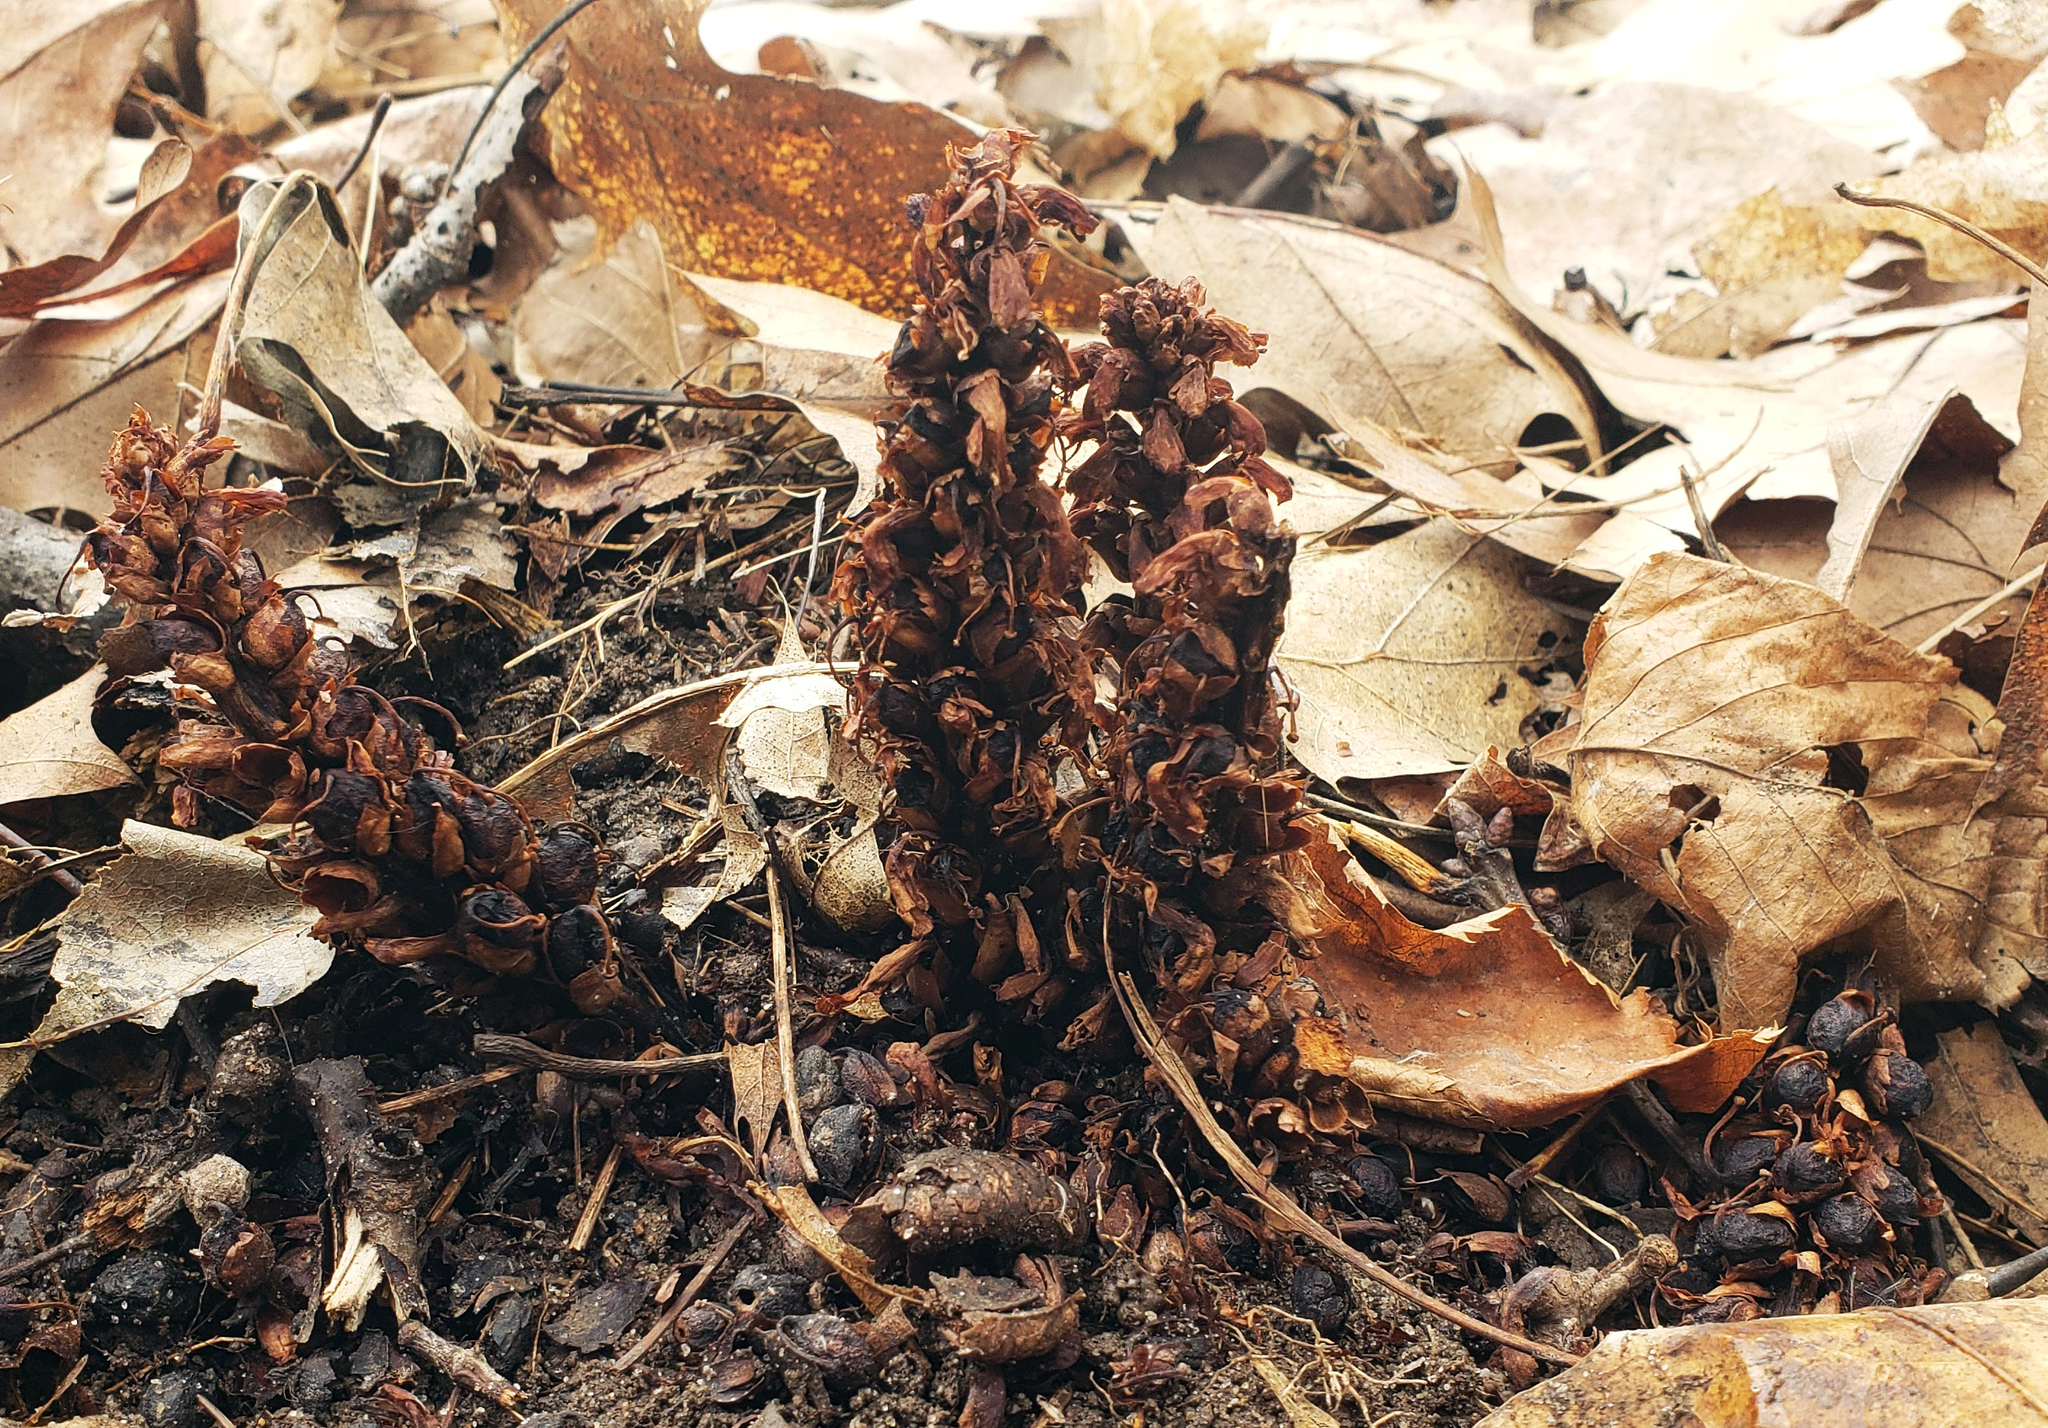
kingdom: Plantae
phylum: Tracheophyta
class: Magnoliopsida
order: Lamiales
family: Orobanchaceae
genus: Conopholis
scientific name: Conopholis americana
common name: American cancer-root
